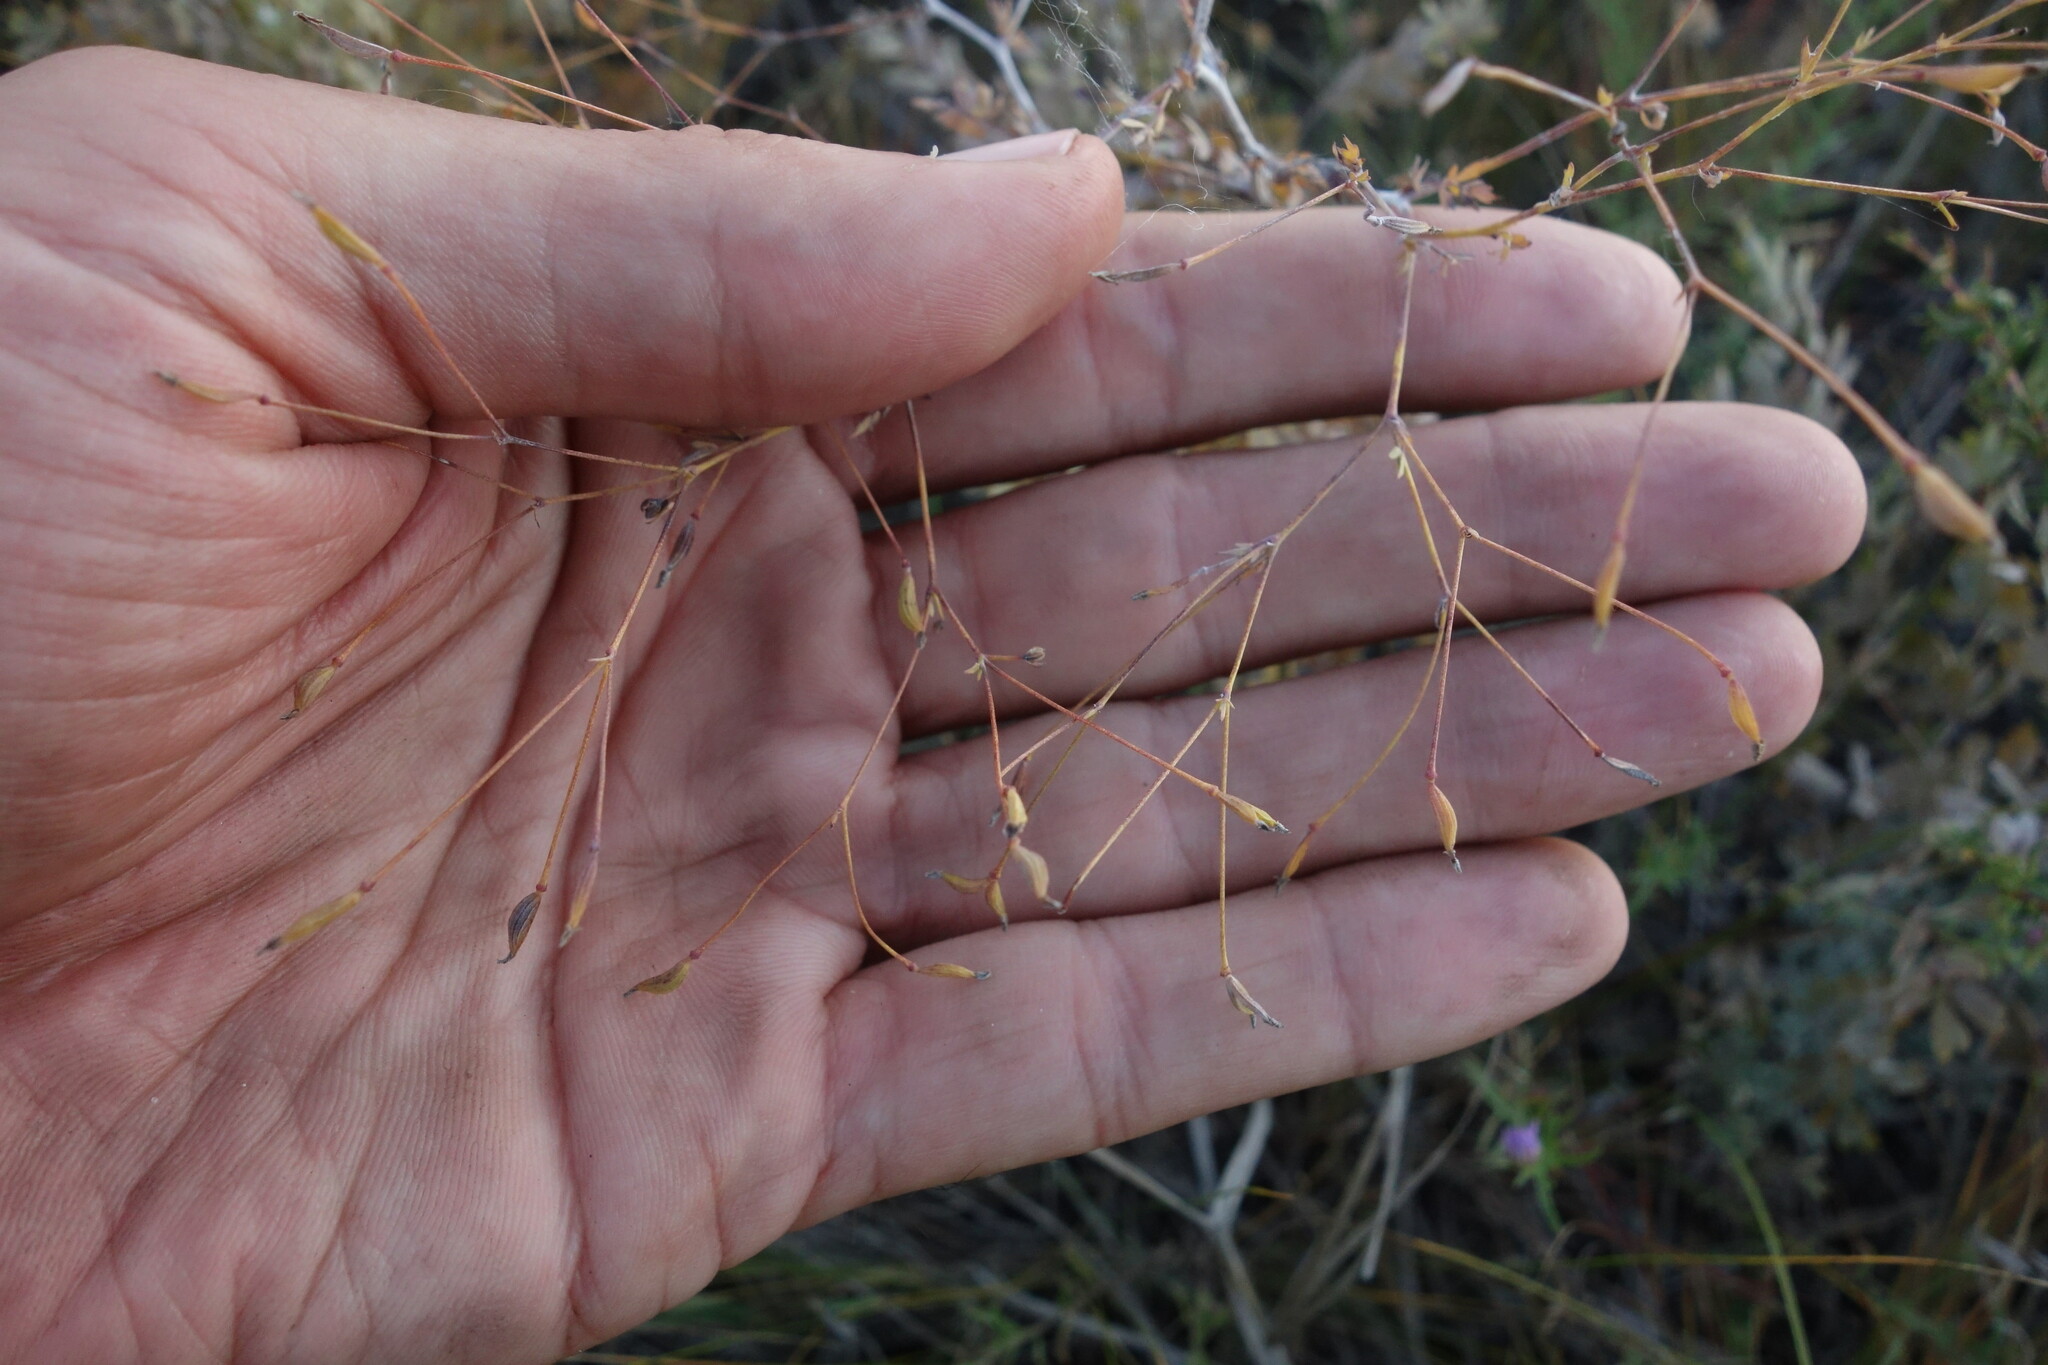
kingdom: Plantae
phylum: Tracheophyta
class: Magnoliopsida
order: Ranunculales
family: Ranunculaceae
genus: Thalictrum
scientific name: Thalictrum squarrosum
